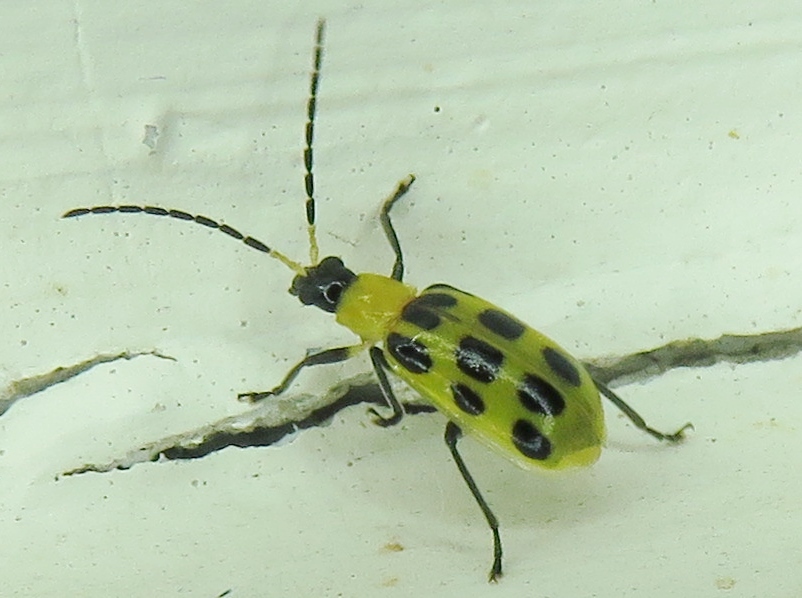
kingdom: Animalia
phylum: Arthropoda
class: Insecta
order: Coleoptera
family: Chrysomelidae
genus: Diabrotica
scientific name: Diabrotica undecimpunctata
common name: Spotted cucumber beetle
